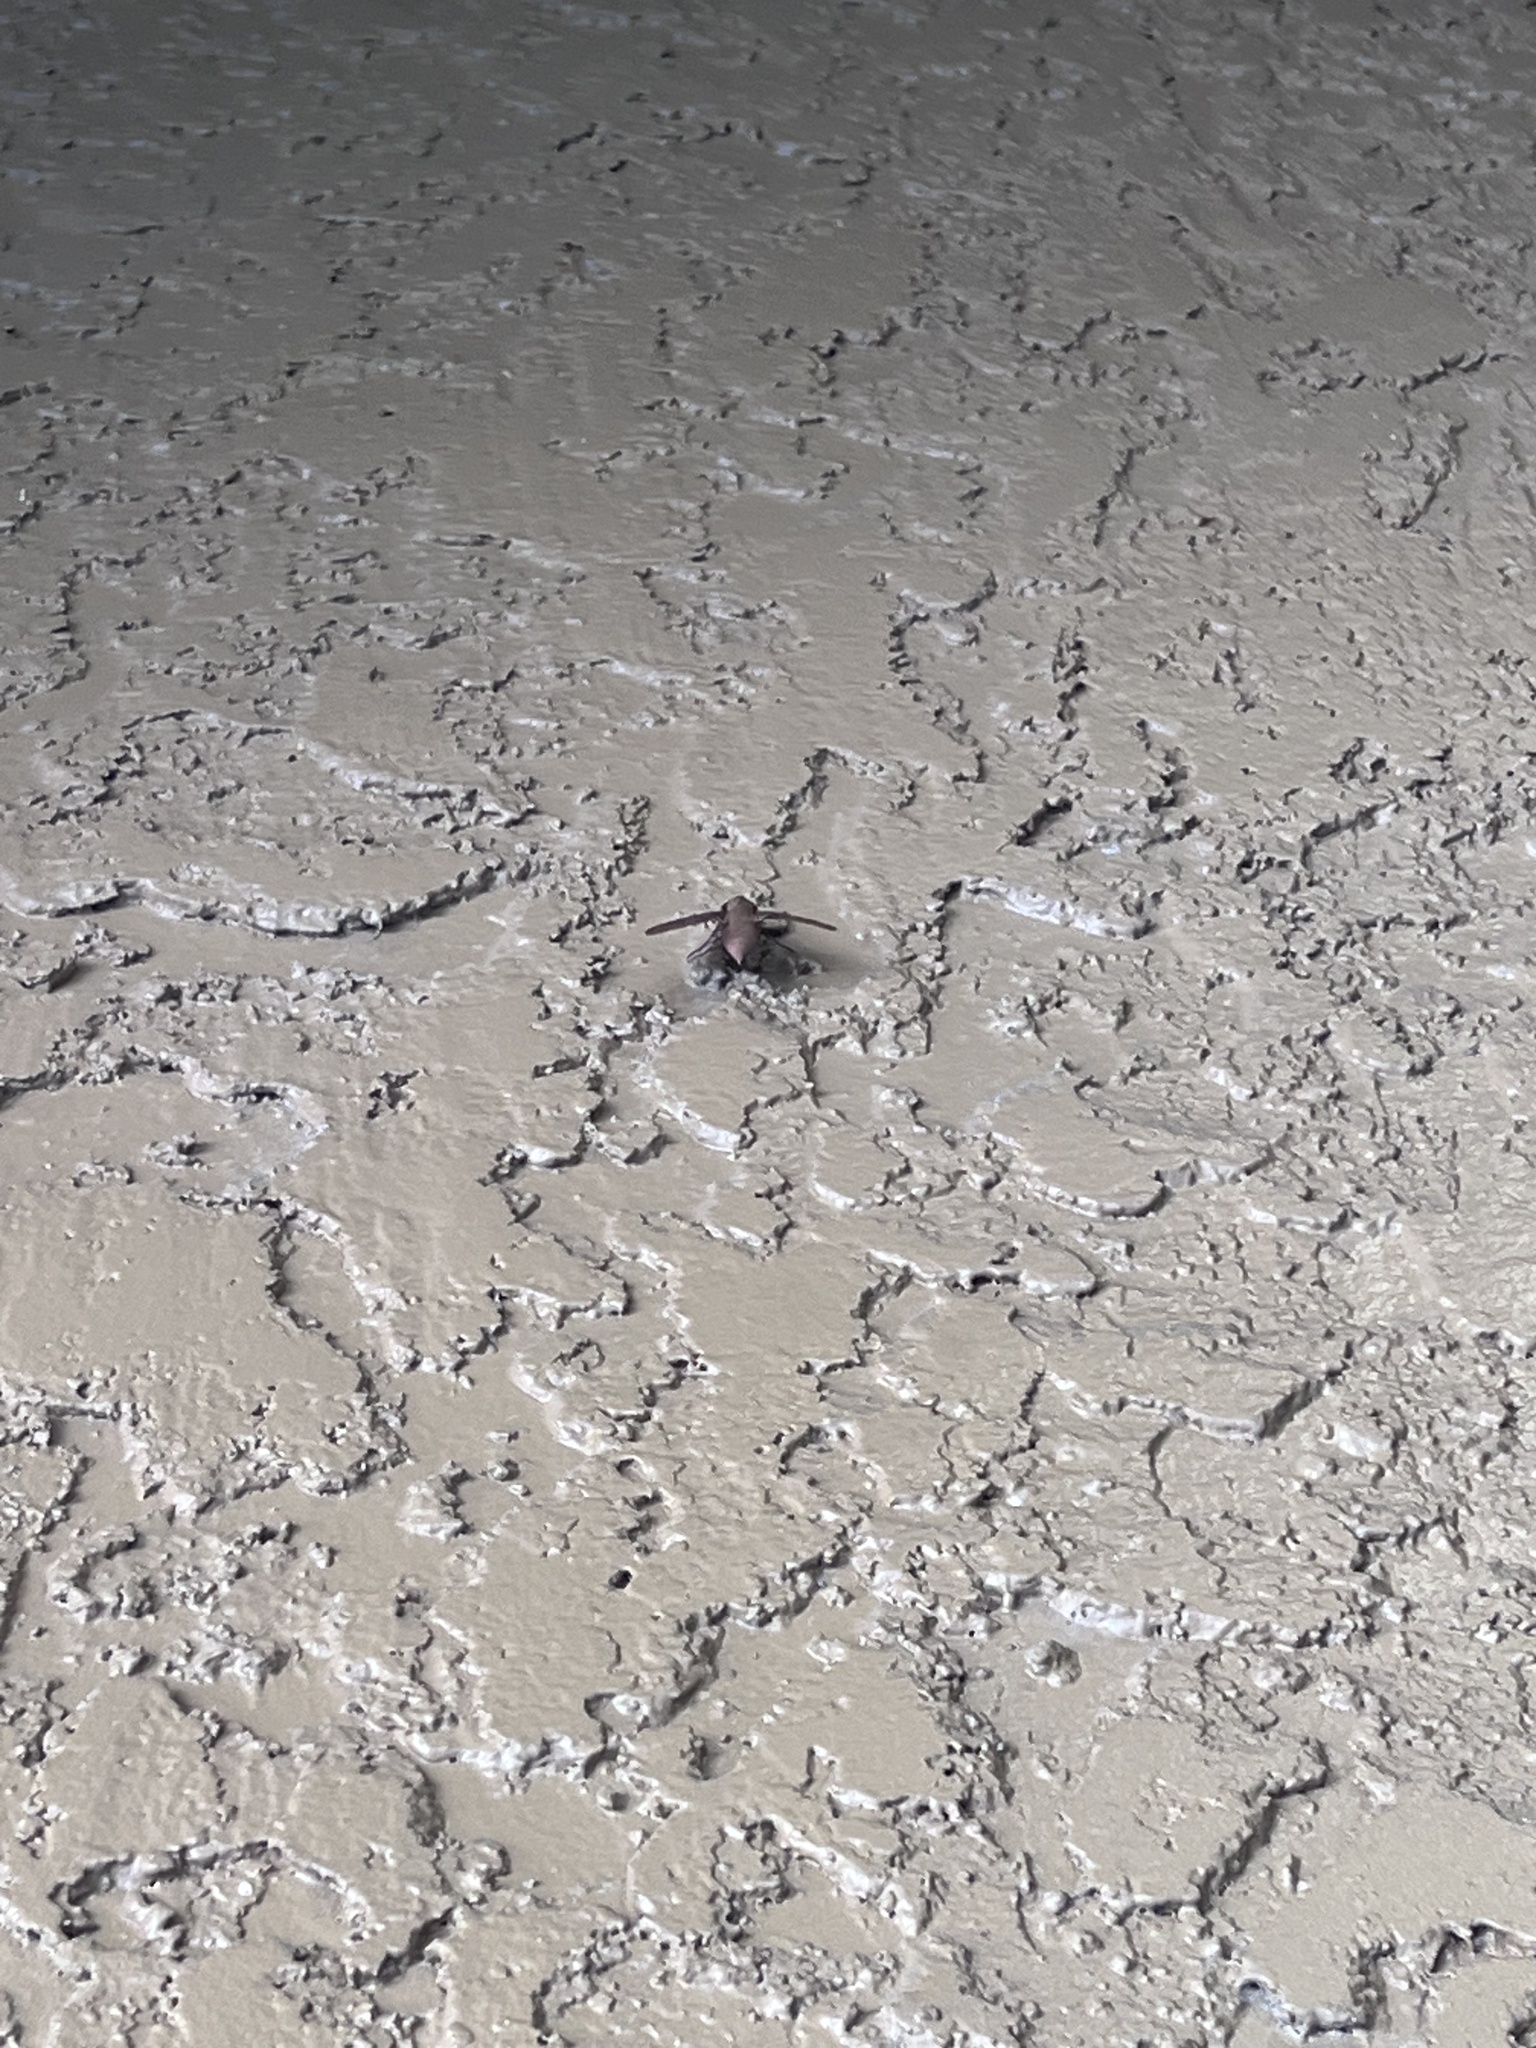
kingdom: Animalia
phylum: Arthropoda
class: Insecta
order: Lepidoptera
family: Sphingidae
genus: Darapsa
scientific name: Darapsa myron
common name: Hog sphinx
